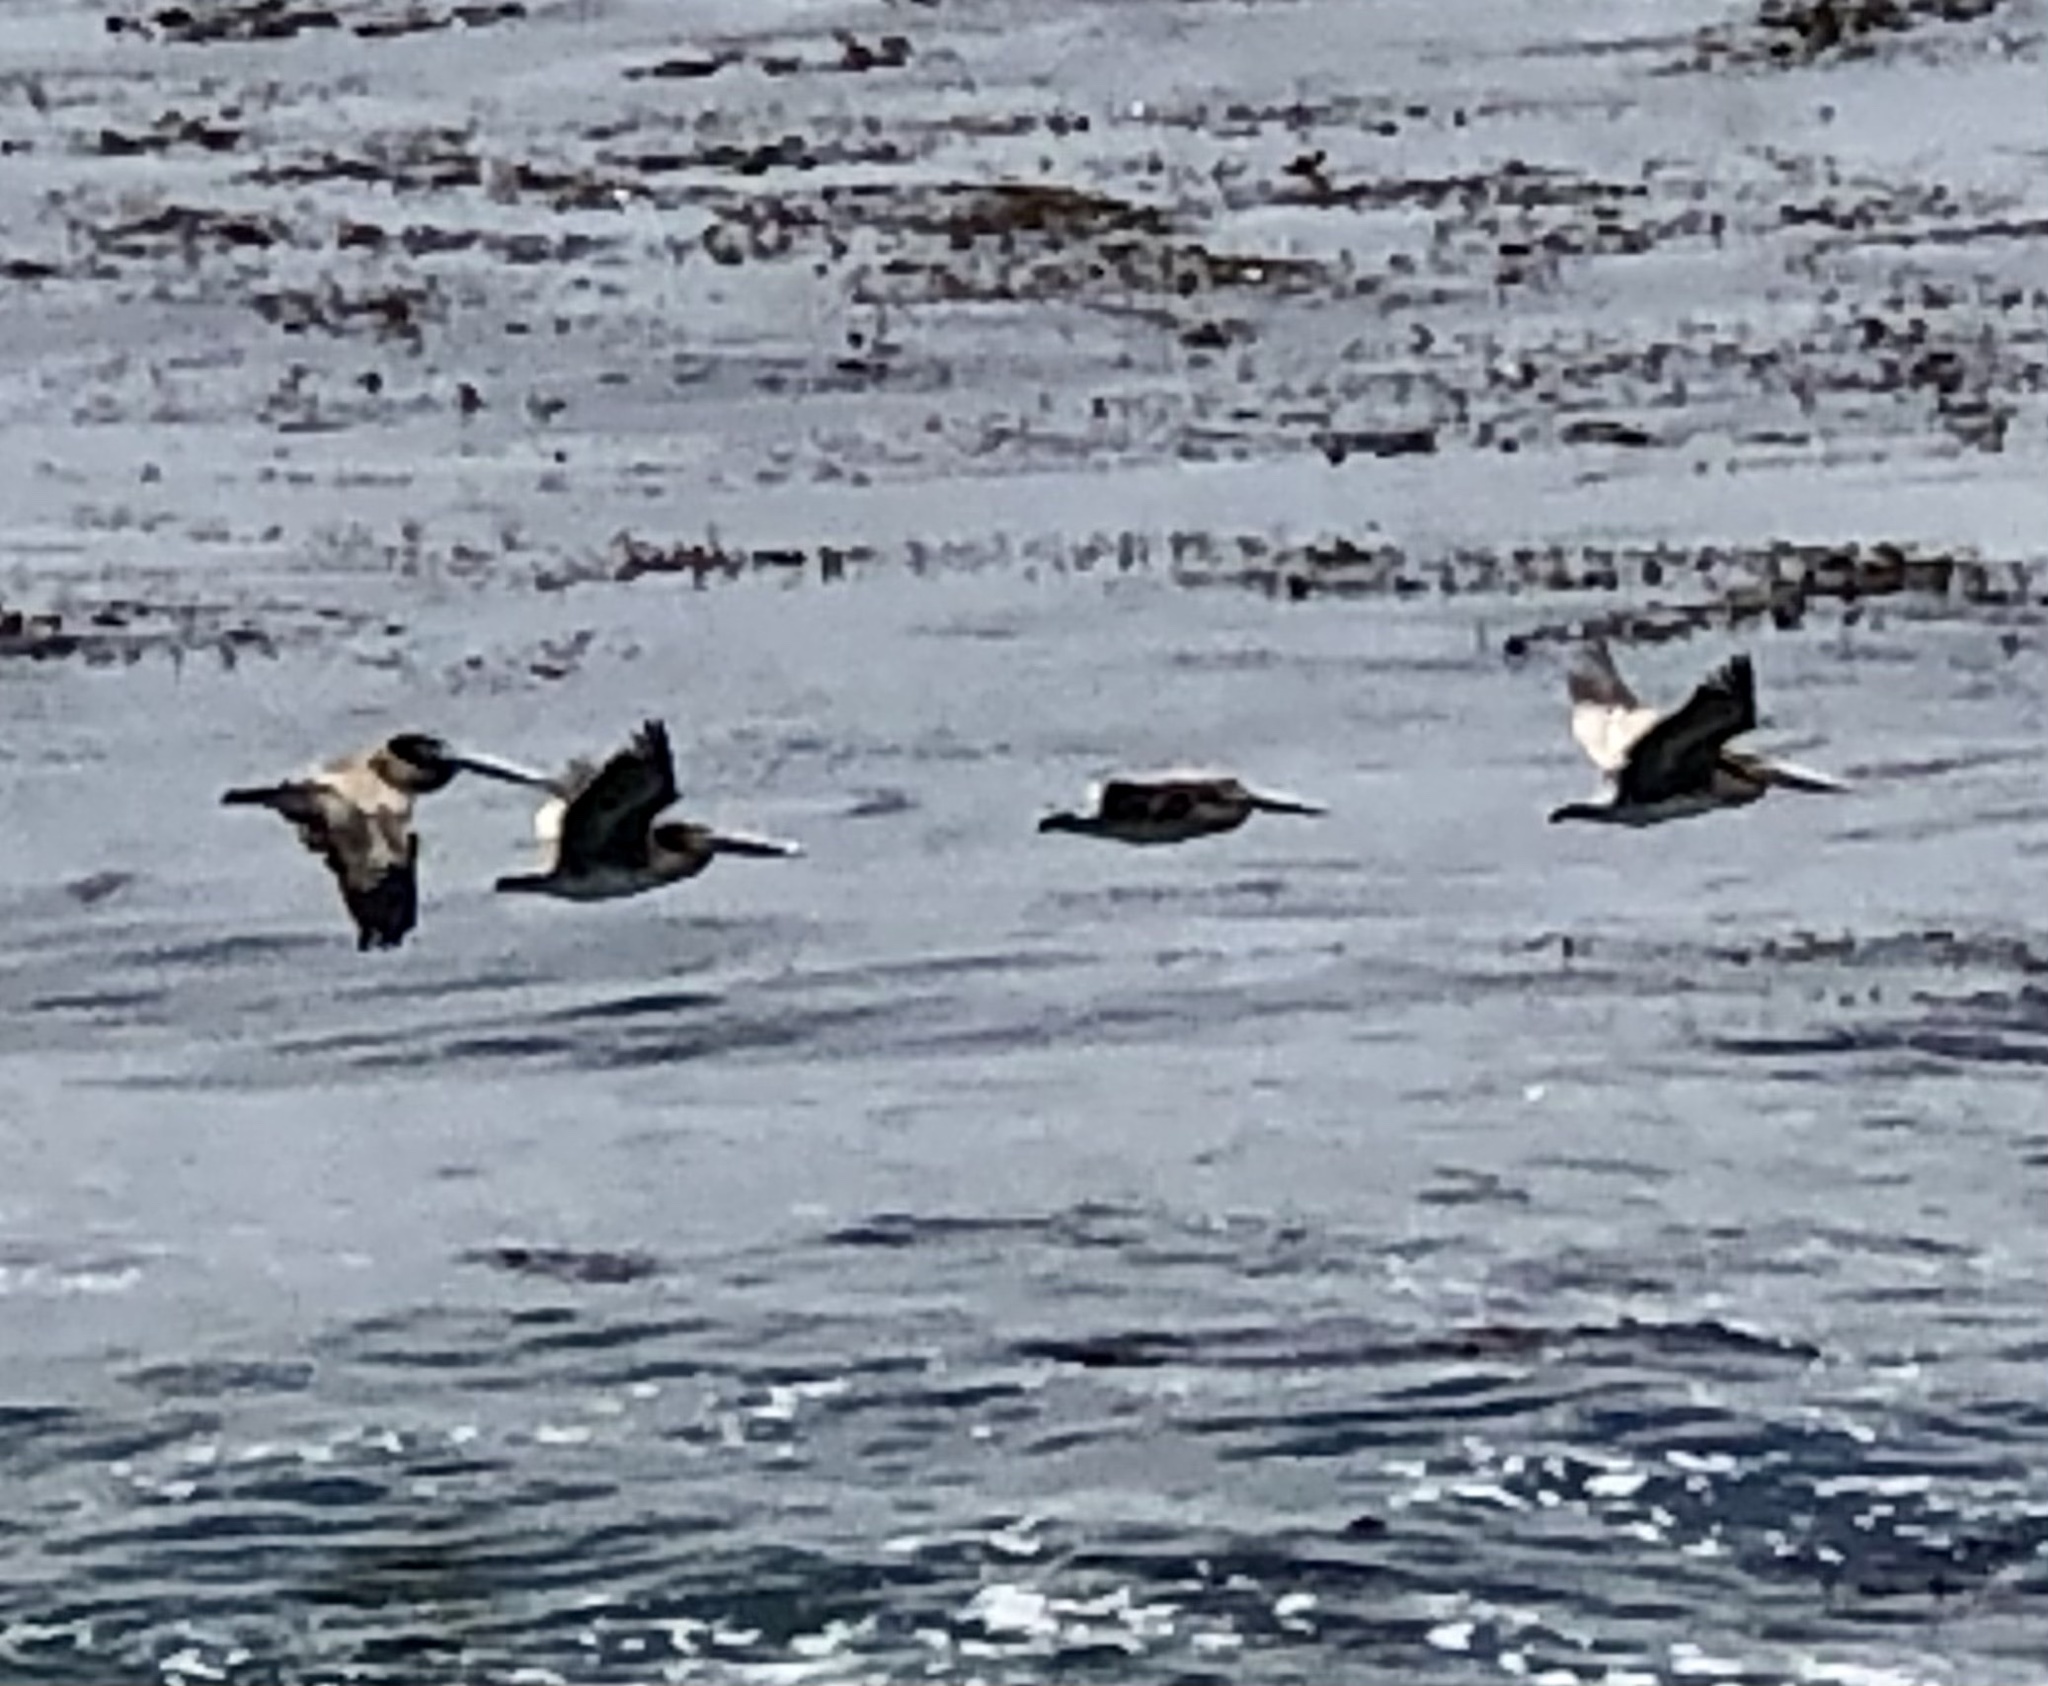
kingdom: Animalia
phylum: Chordata
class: Aves
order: Pelecaniformes
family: Pelecanidae
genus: Pelecanus
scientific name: Pelecanus occidentalis
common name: Brown pelican
